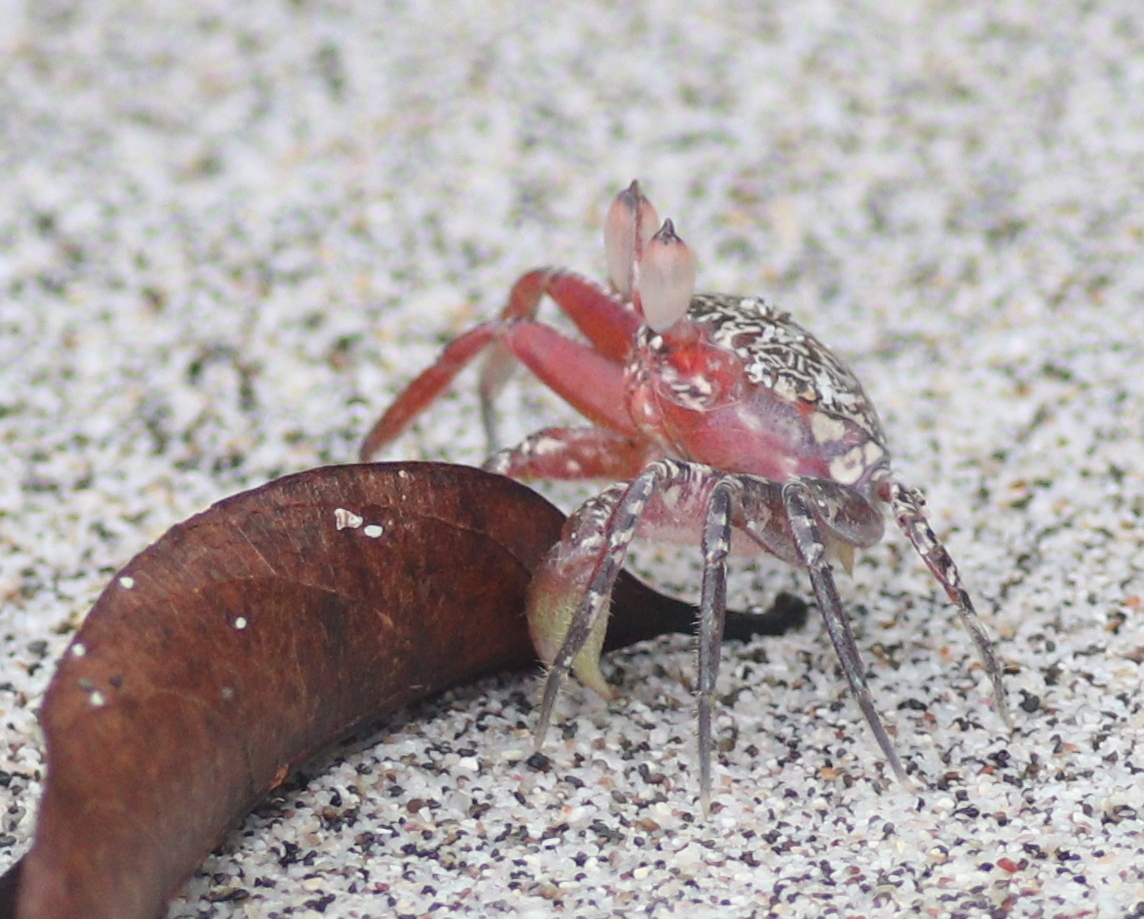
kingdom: Animalia
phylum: Arthropoda
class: Malacostraca
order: Decapoda
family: Ocypodidae
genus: Ocypode
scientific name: Ocypode gaudichaudii
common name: Pacific ghost crab
